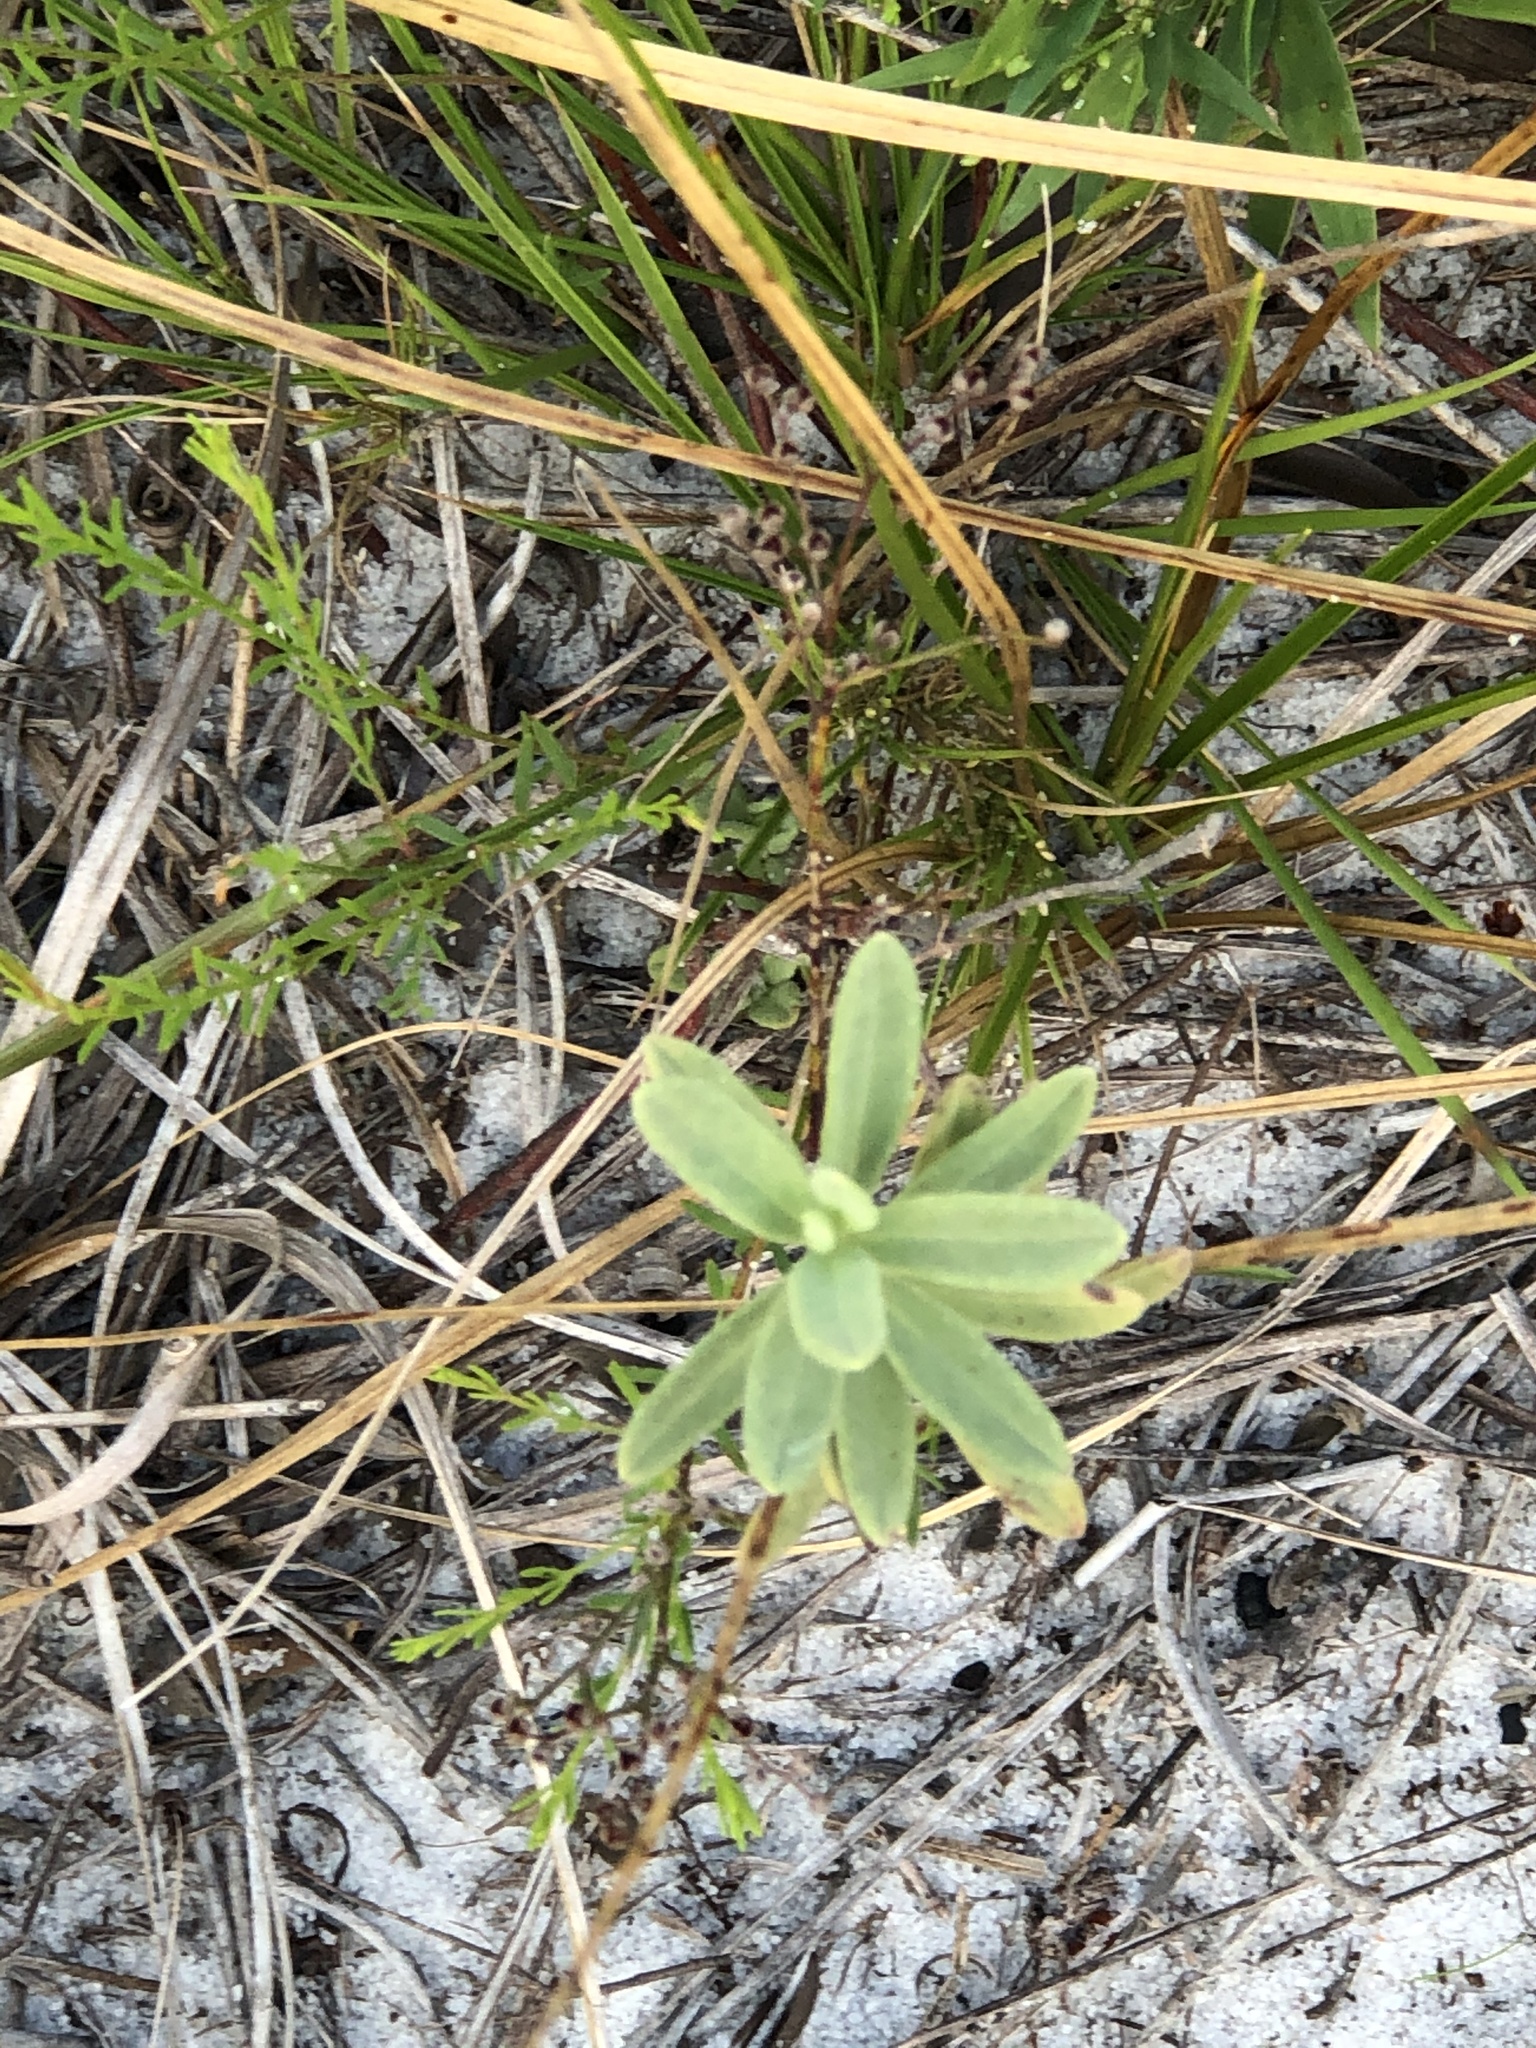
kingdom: Plantae
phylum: Tracheophyta
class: Magnoliopsida
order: Malvales
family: Cistaceae
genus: Crocanthemum
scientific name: Crocanthemum nashii
